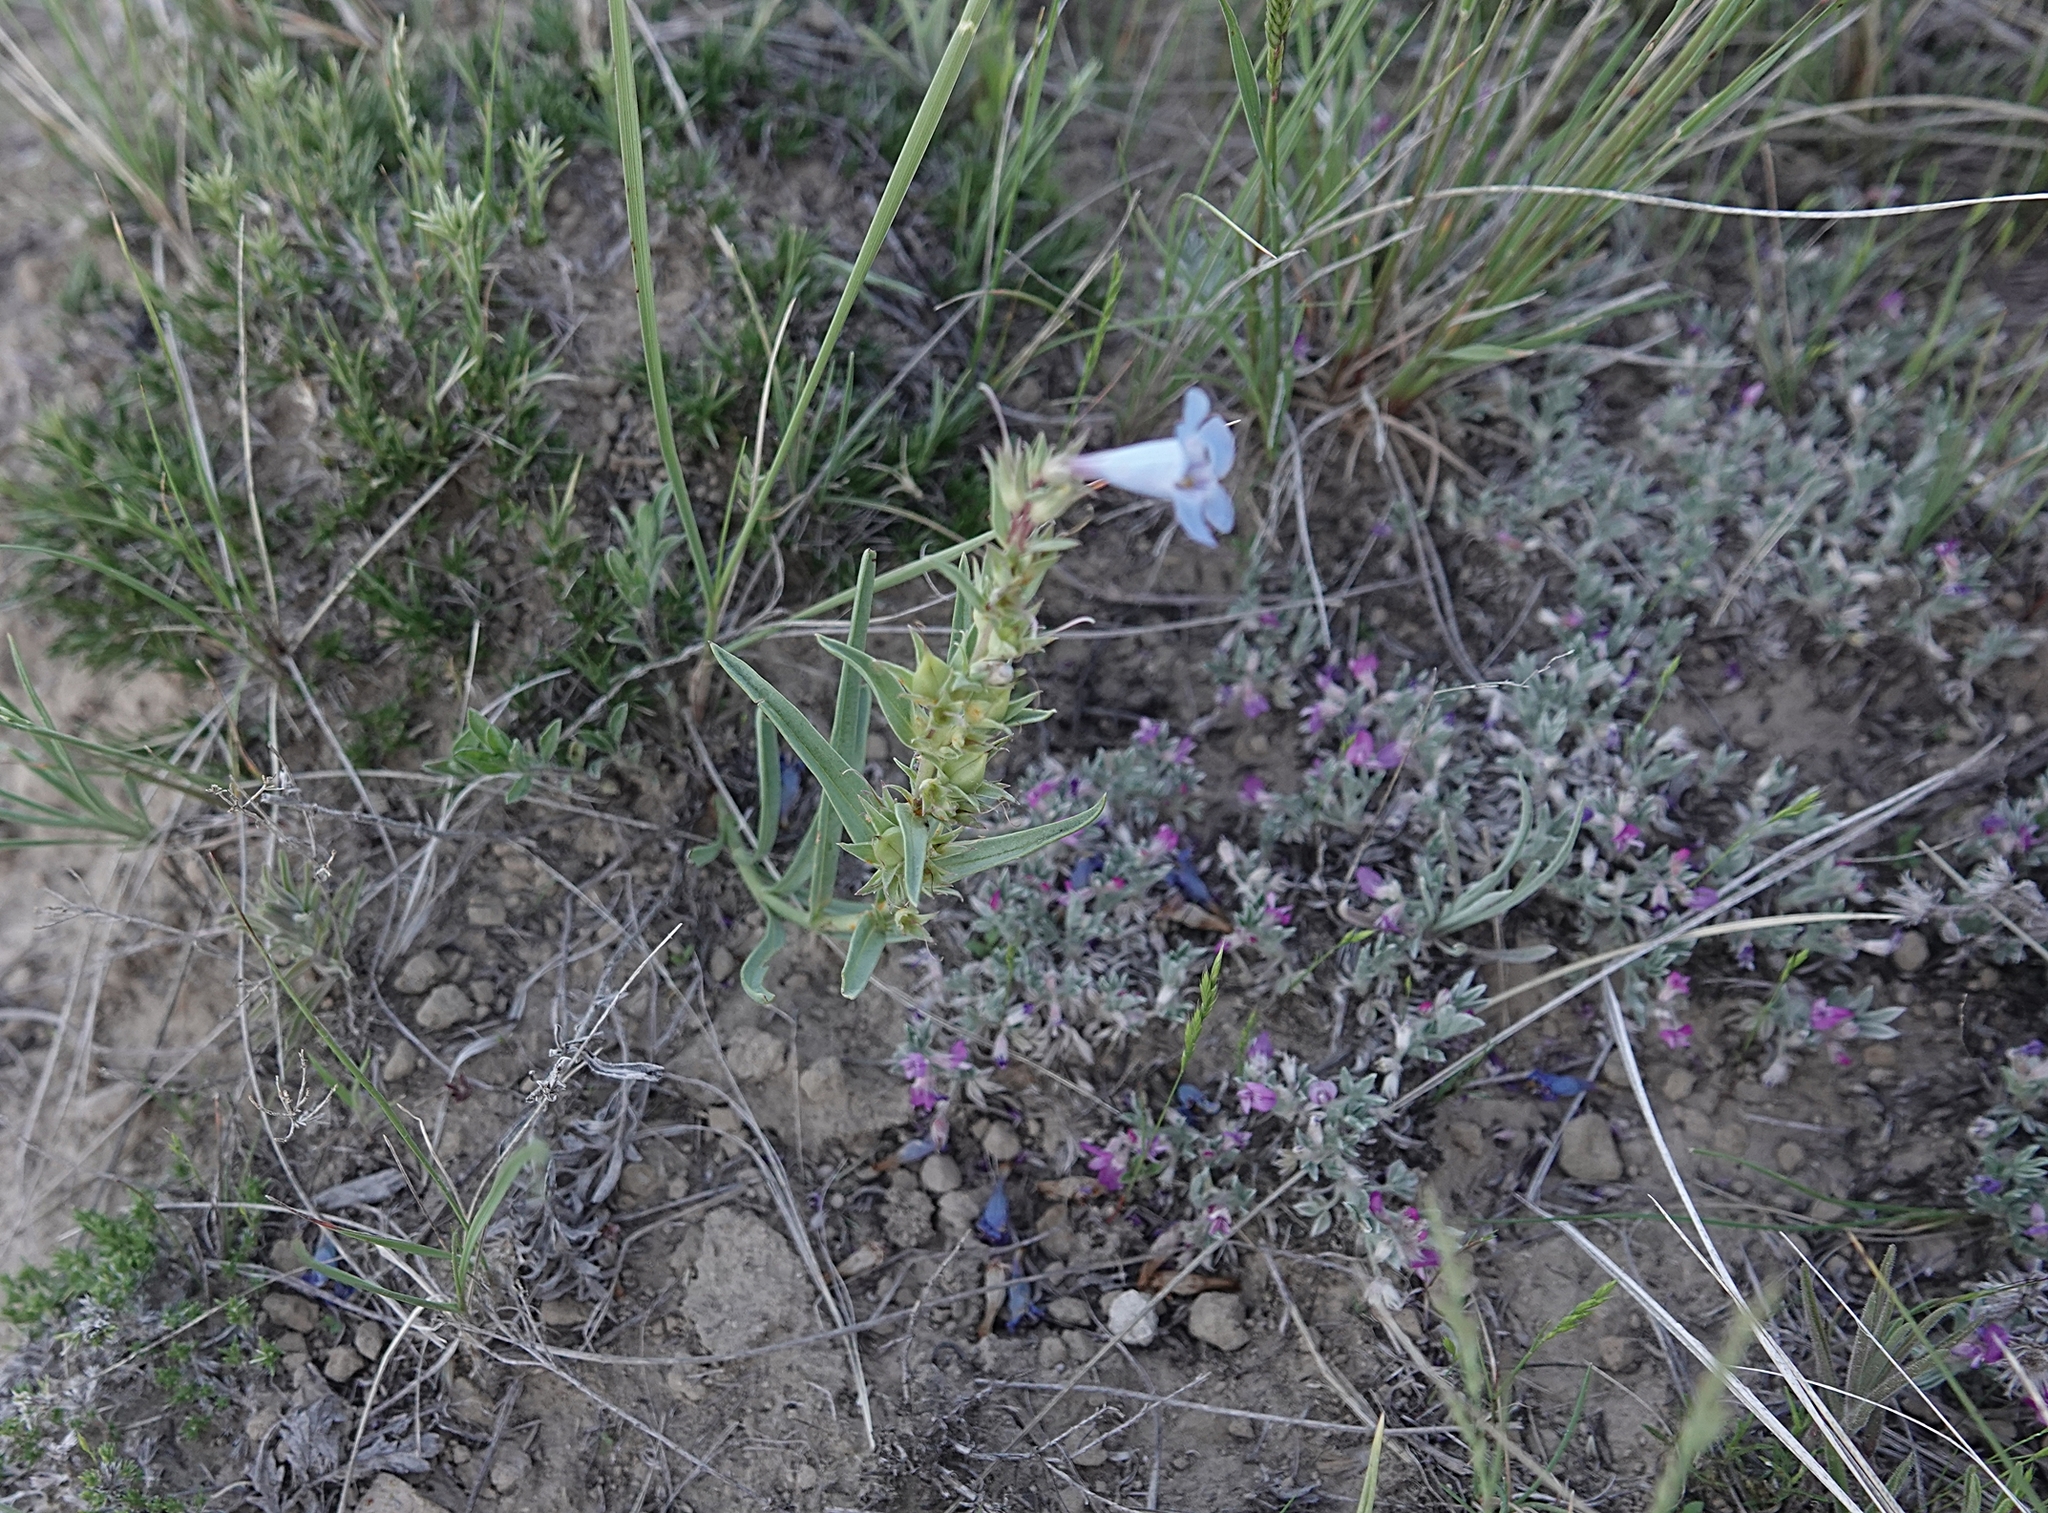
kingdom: Plantae
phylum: Tracheophyta
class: Magnoliopsida
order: Lamiales
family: Plantaginaceae
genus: Penstemon
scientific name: Penstemon angustifolius
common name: Narrow beardtongue
